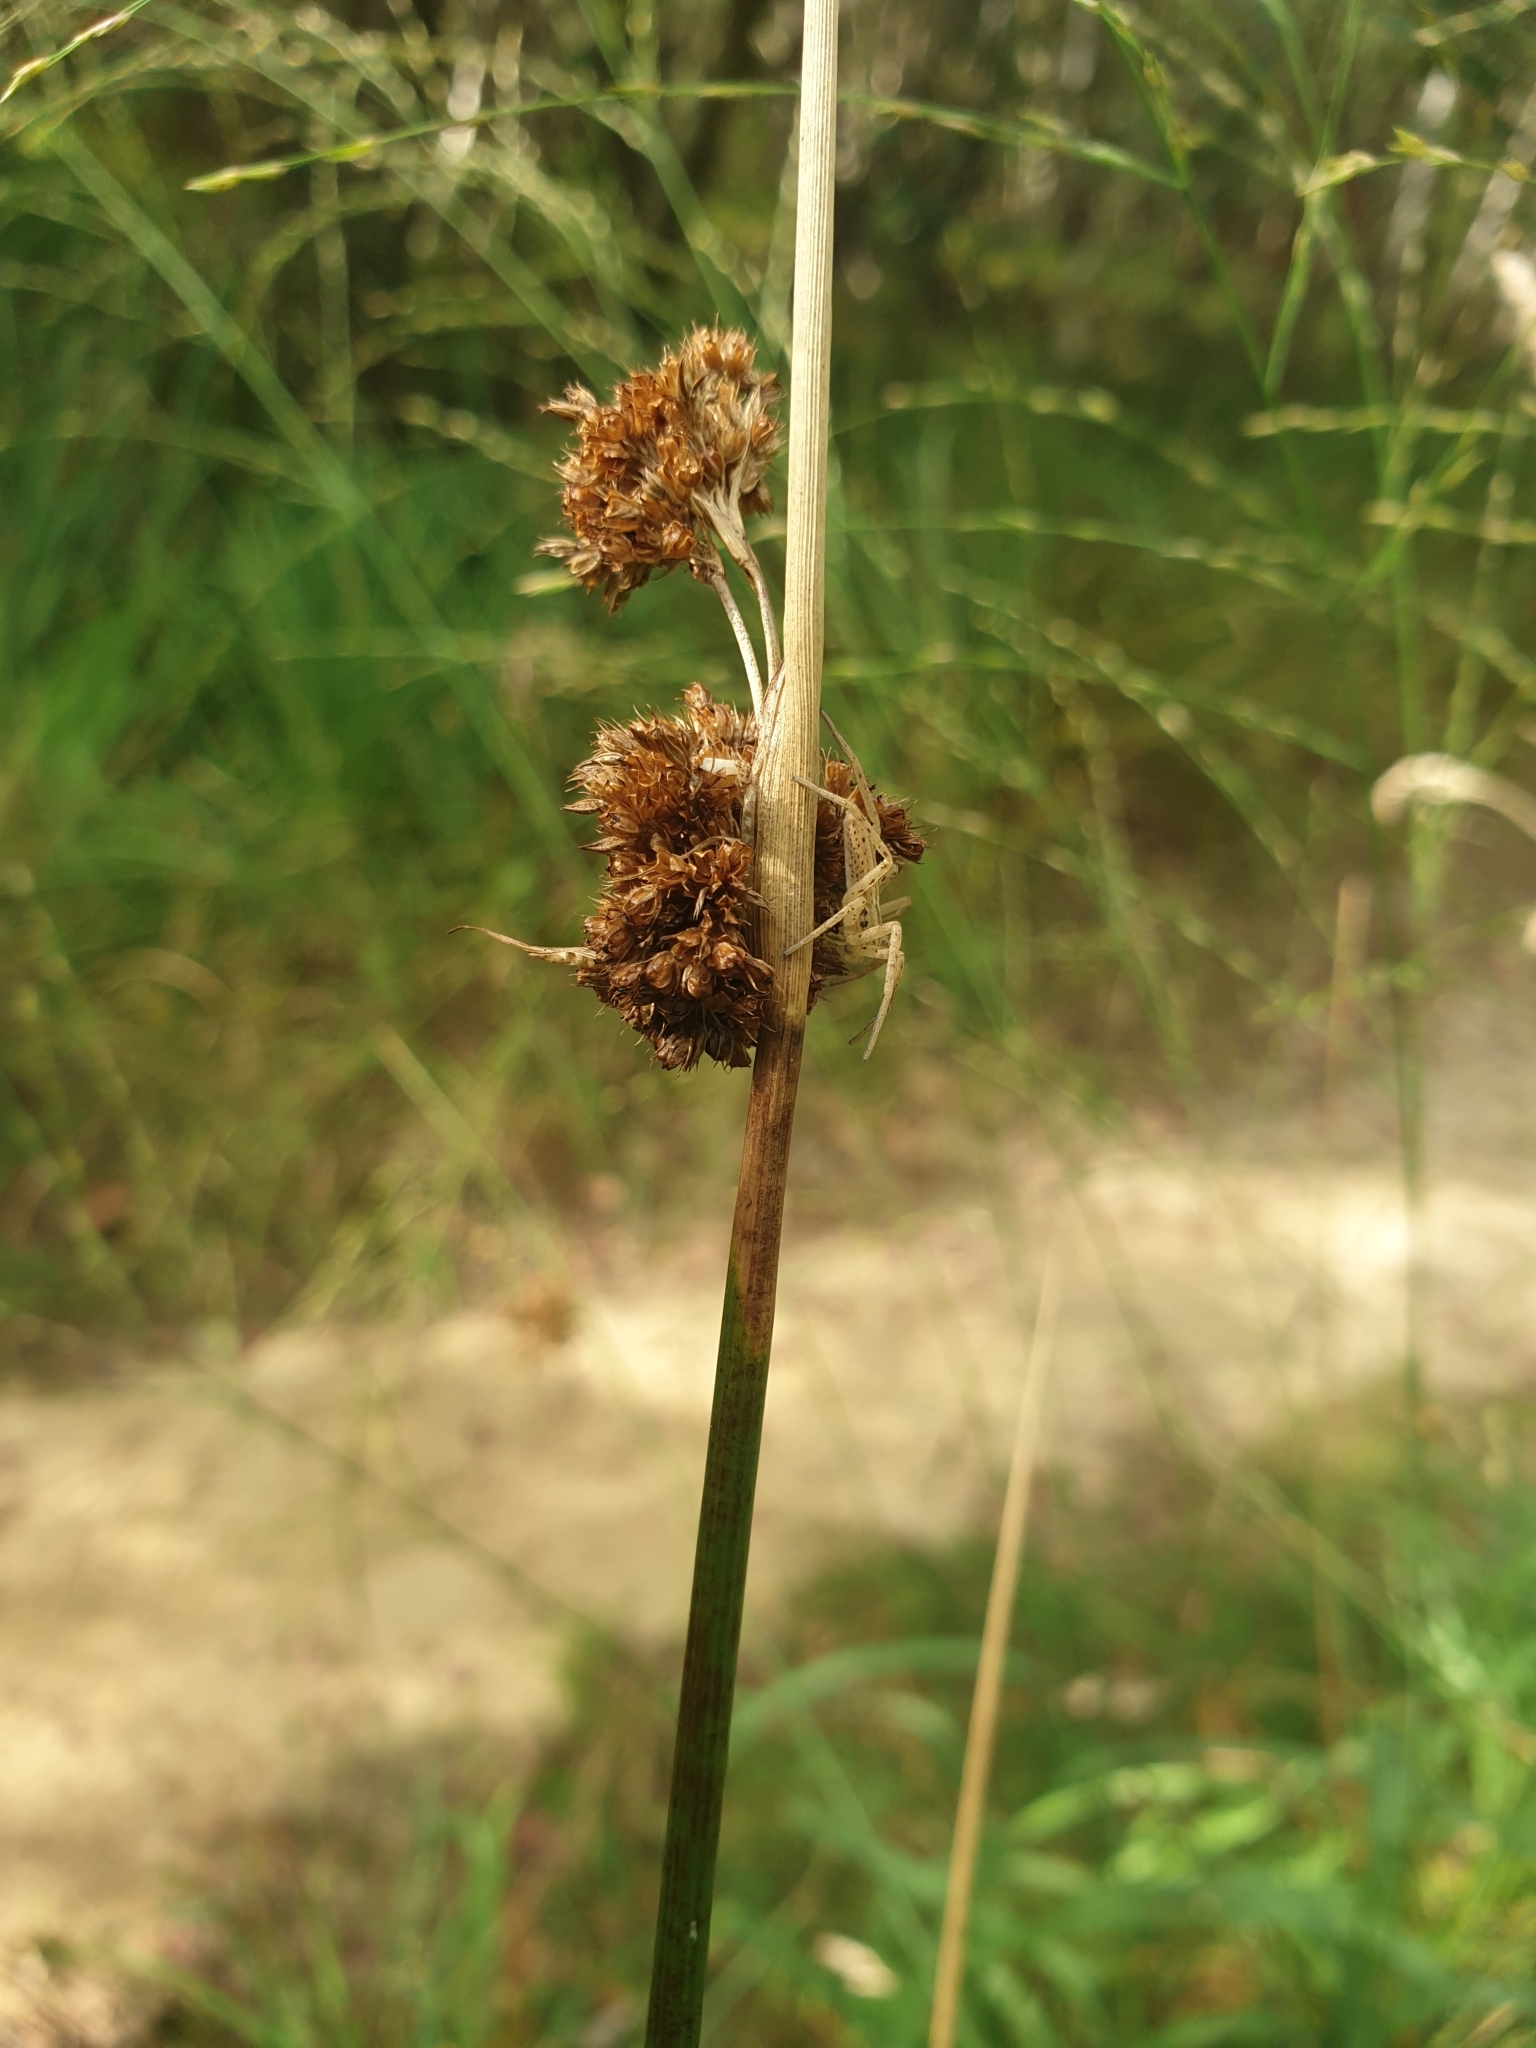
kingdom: Animalia
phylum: Arthropoda
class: Arachnida
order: Araneae
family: Philodromidae
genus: Tibellus
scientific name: Tibellus
